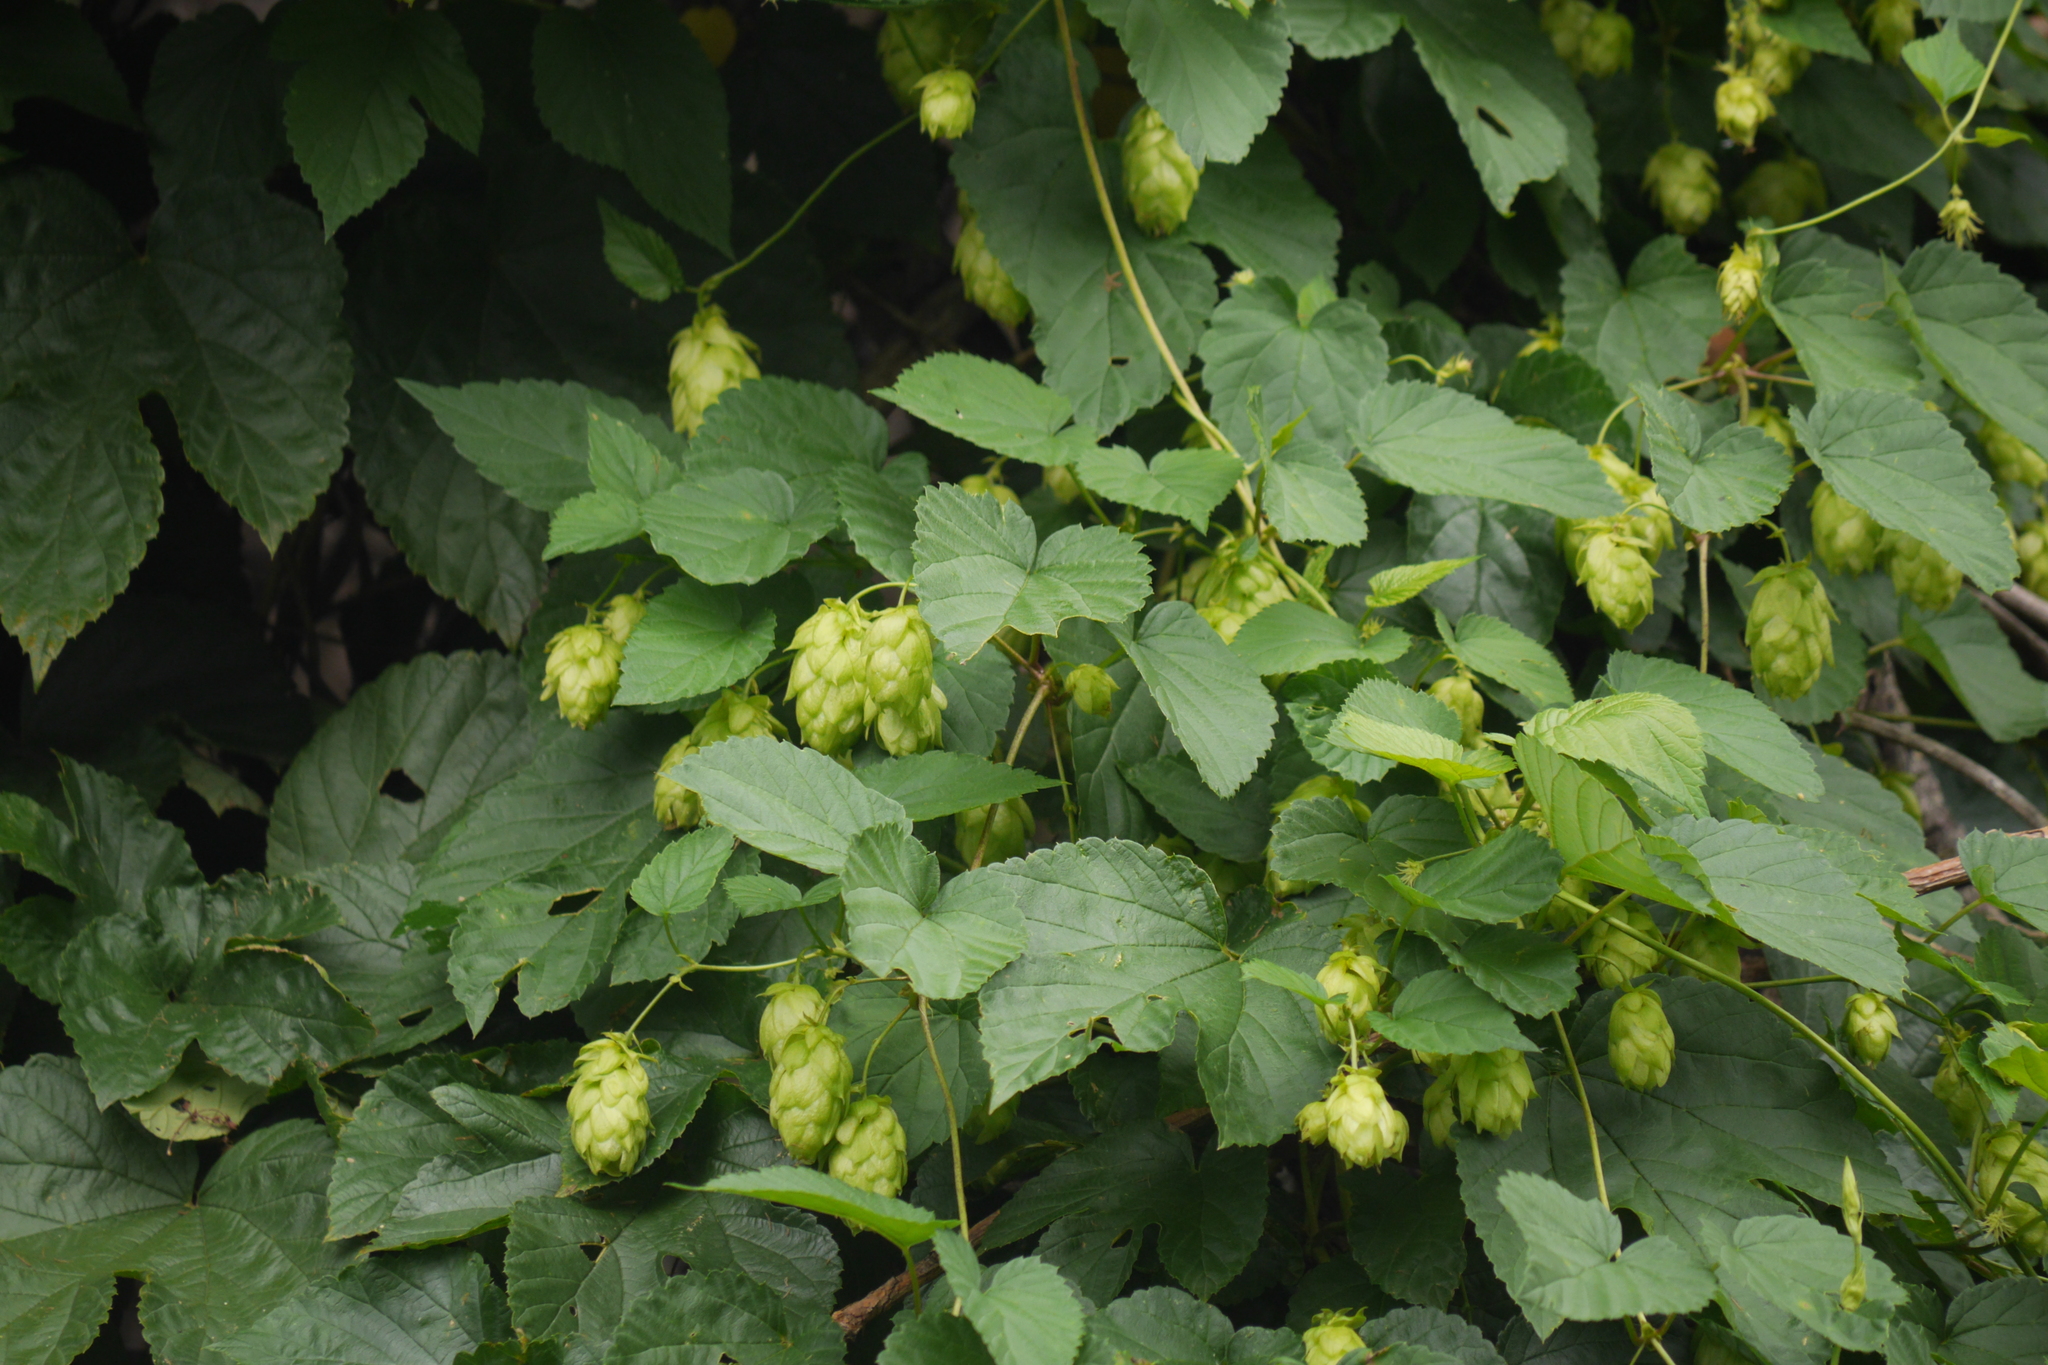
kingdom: Plantae
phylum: Tracheophyta
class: Magnoliopsida
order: Rosales
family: Cannabaceae
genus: Humulus
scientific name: Humulus lupulus
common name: Hop
